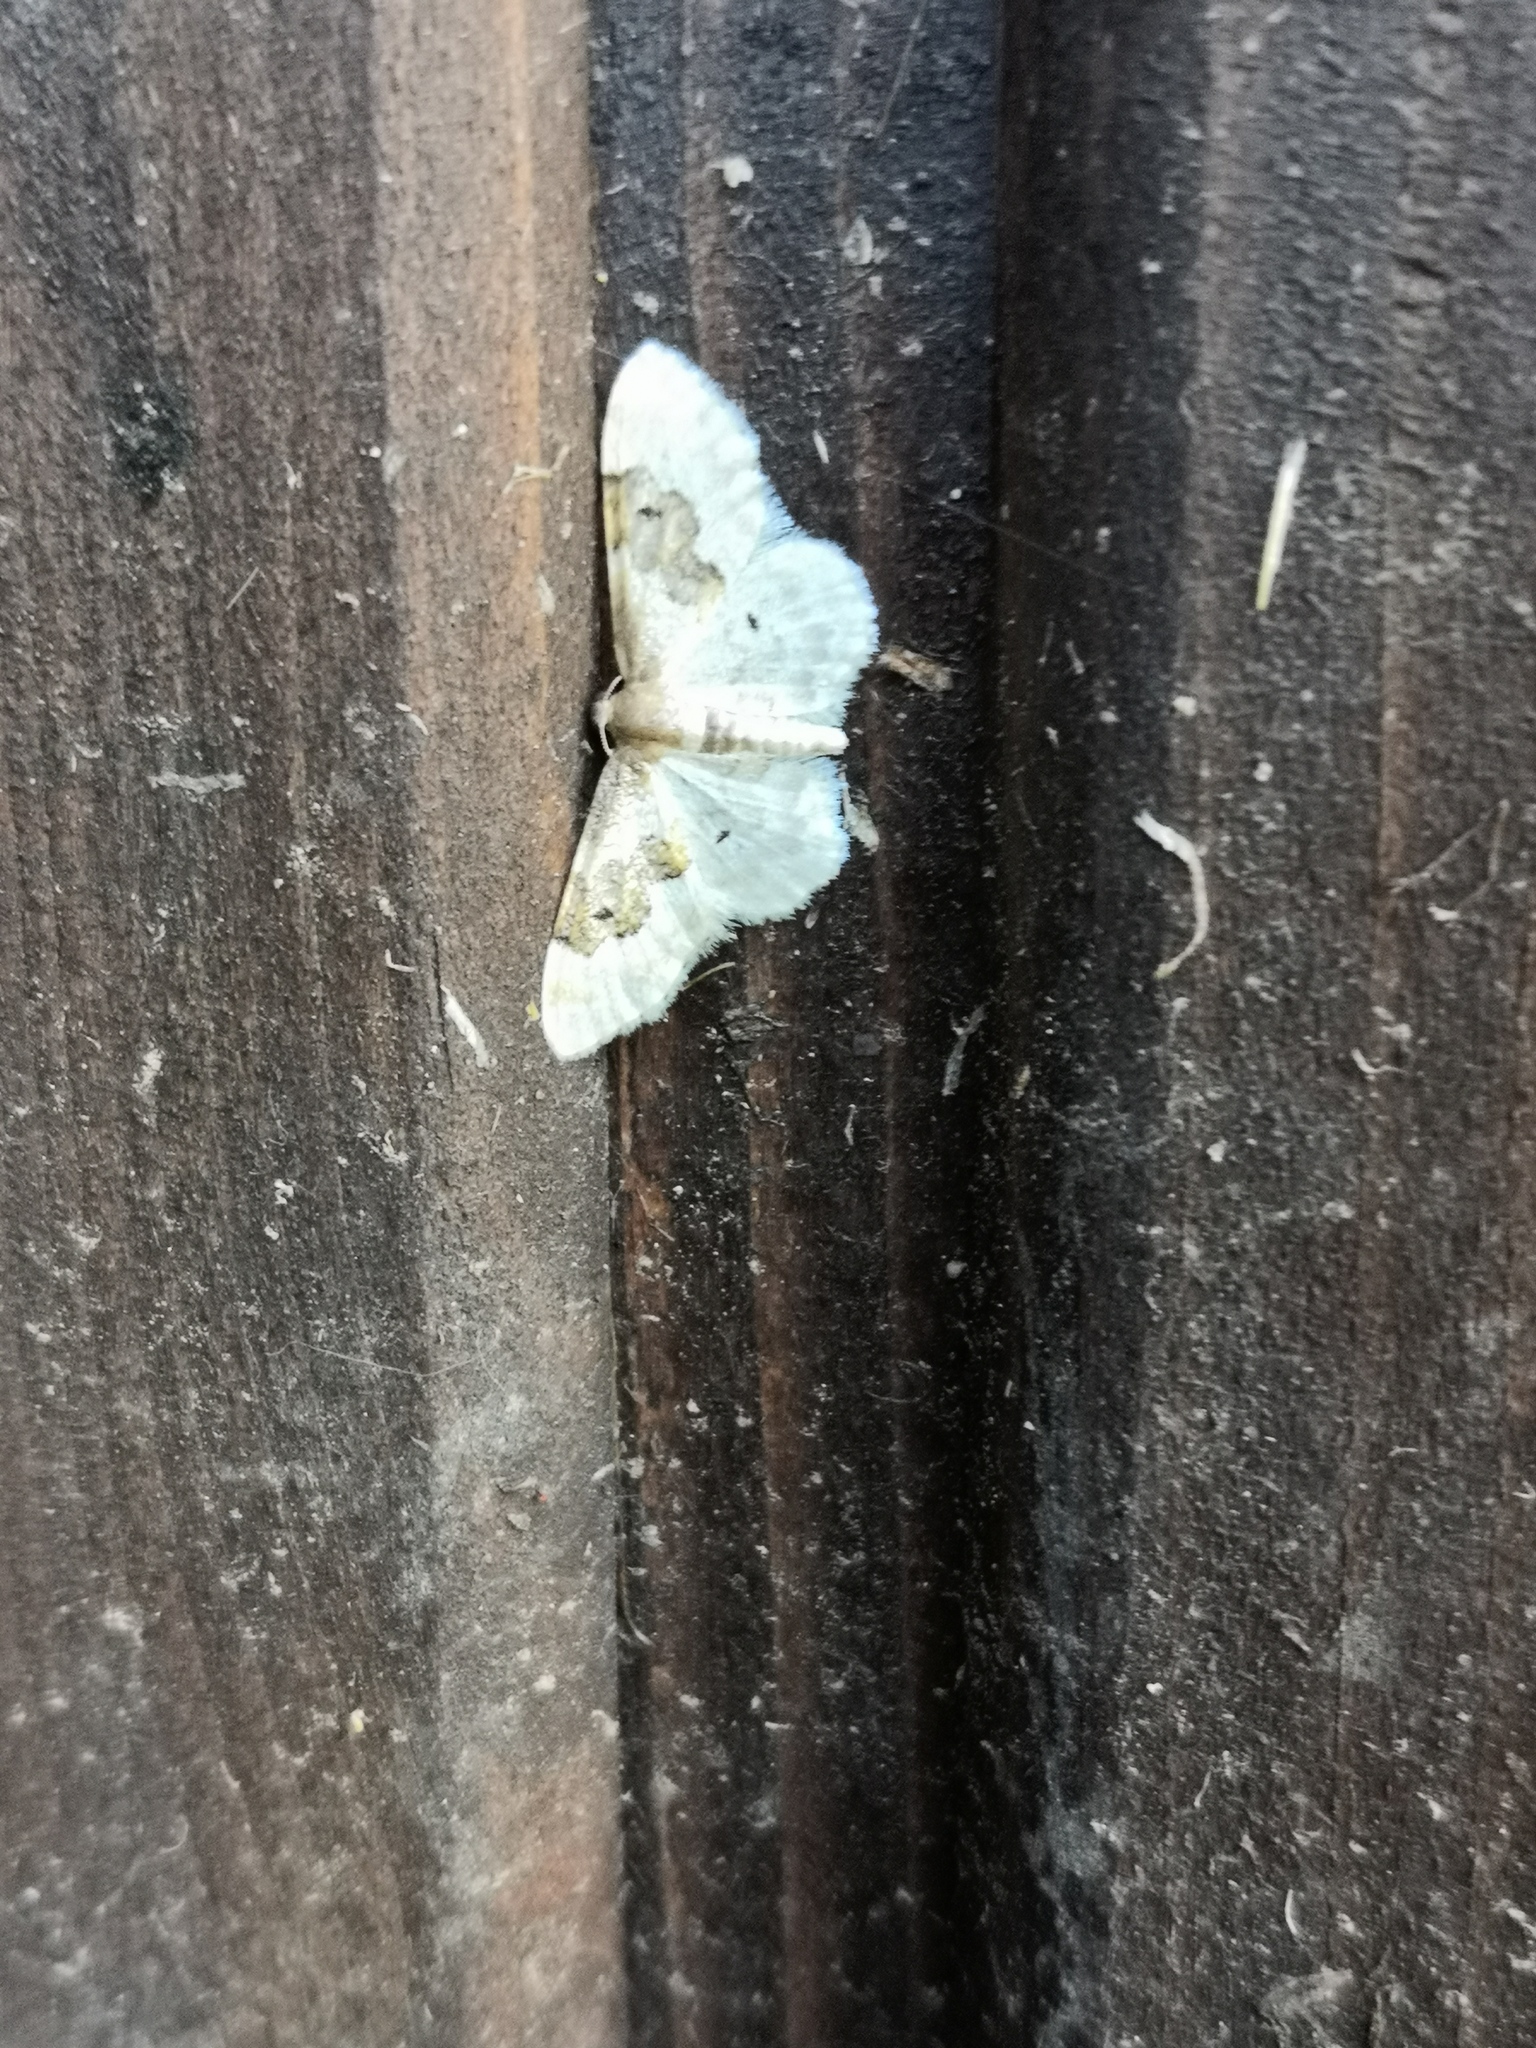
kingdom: Animalia
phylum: Arthropoda
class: Insecta
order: Lepidoptera
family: Geometridae
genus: Idaea
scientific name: Idaea rusticata
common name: Least carpet
